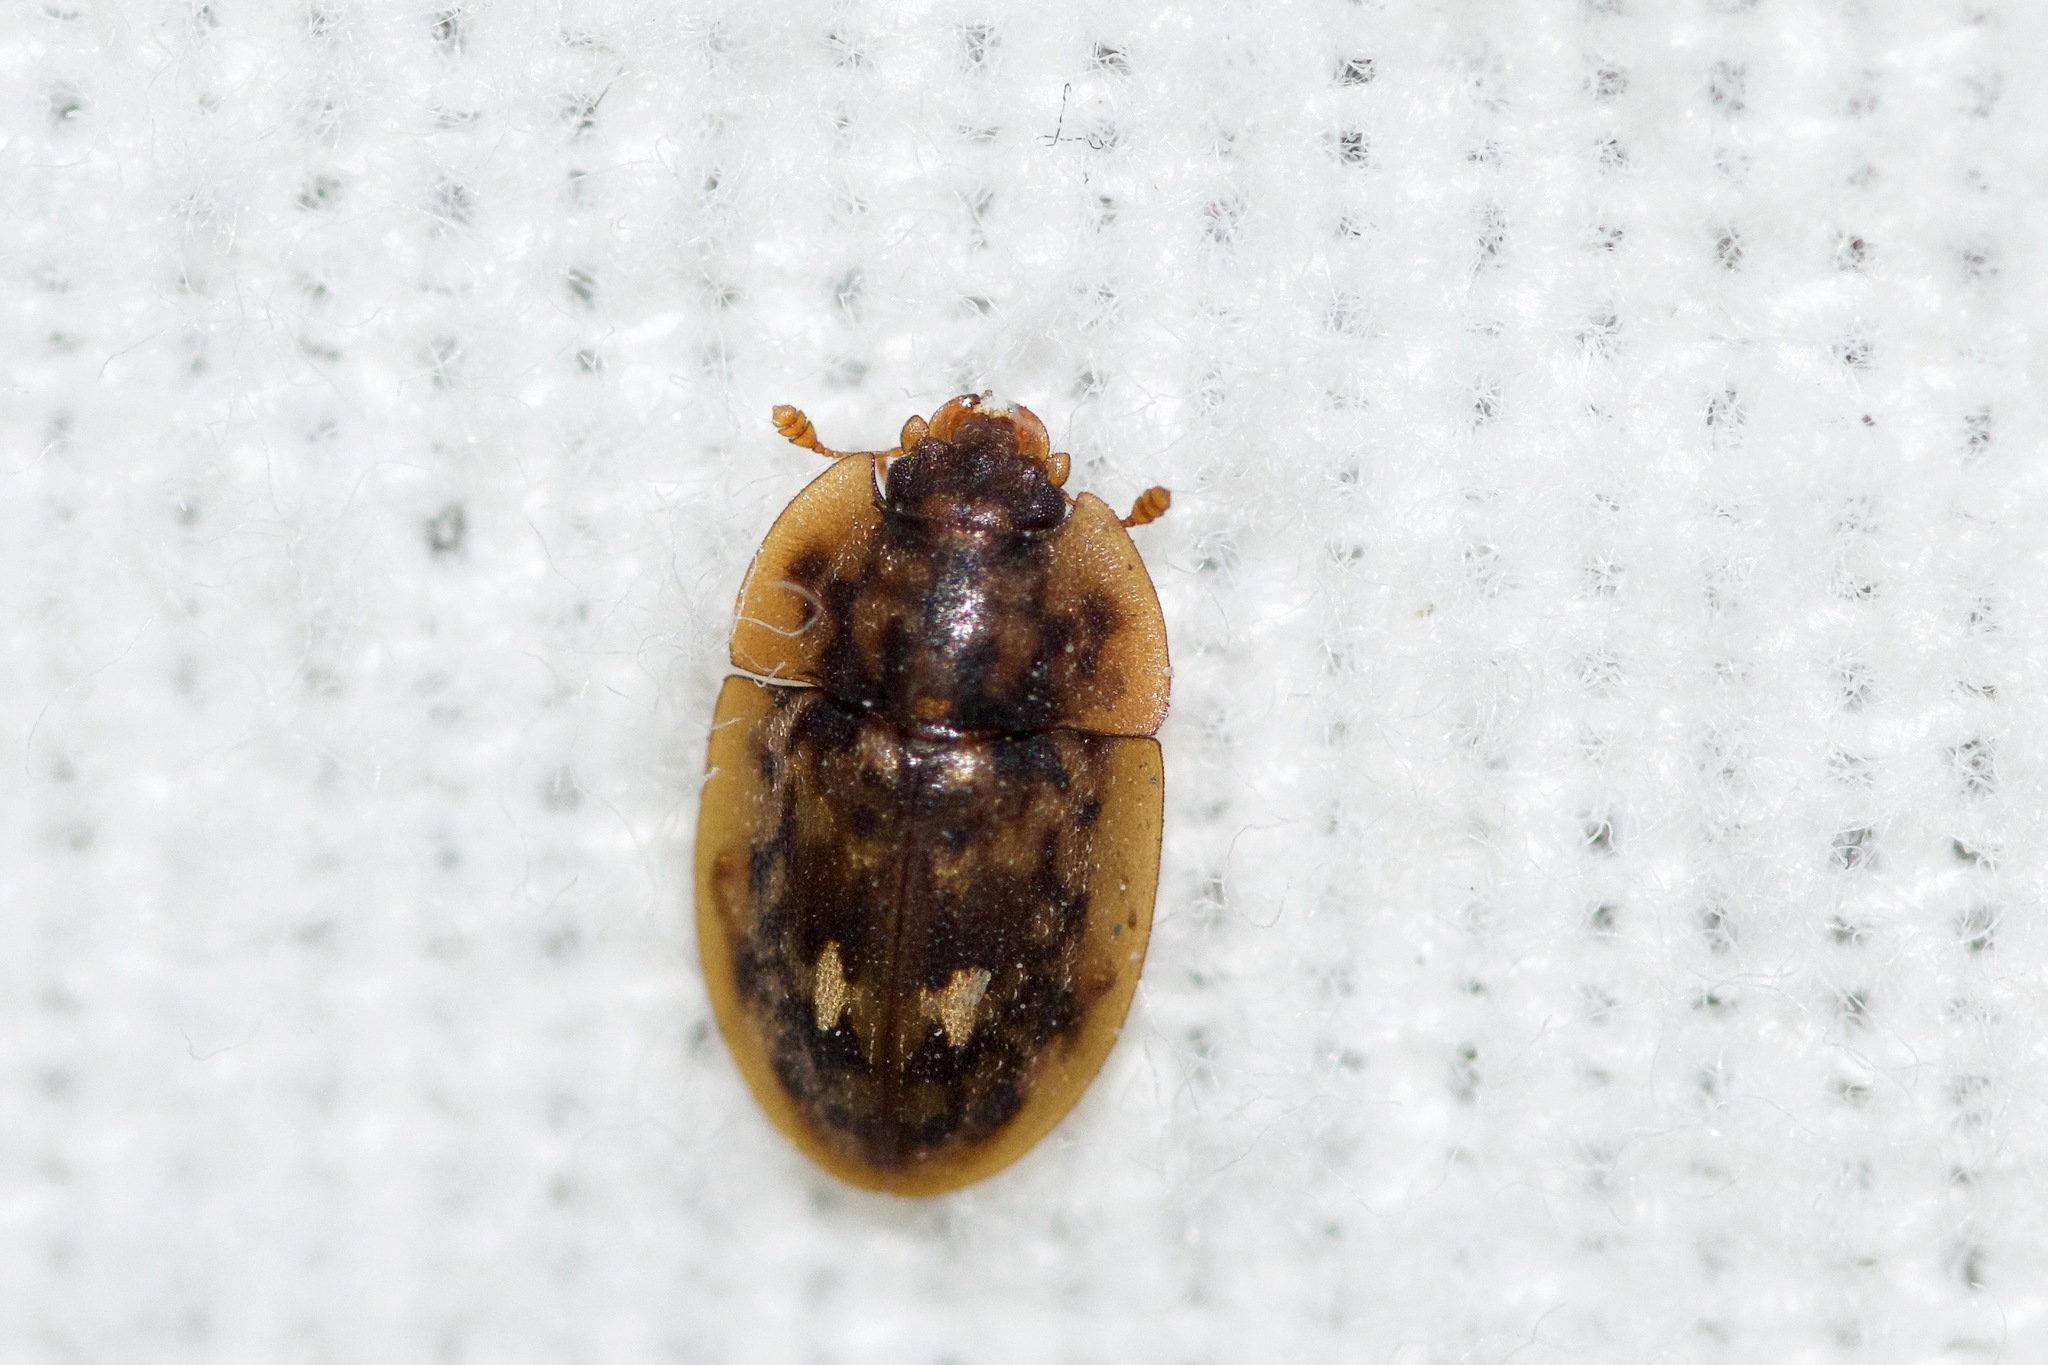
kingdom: Animalia
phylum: Arthropoda
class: Insecta
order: Coleoptera
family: Nitidulidae
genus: Lobiopa
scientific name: Lobiopa undulata
